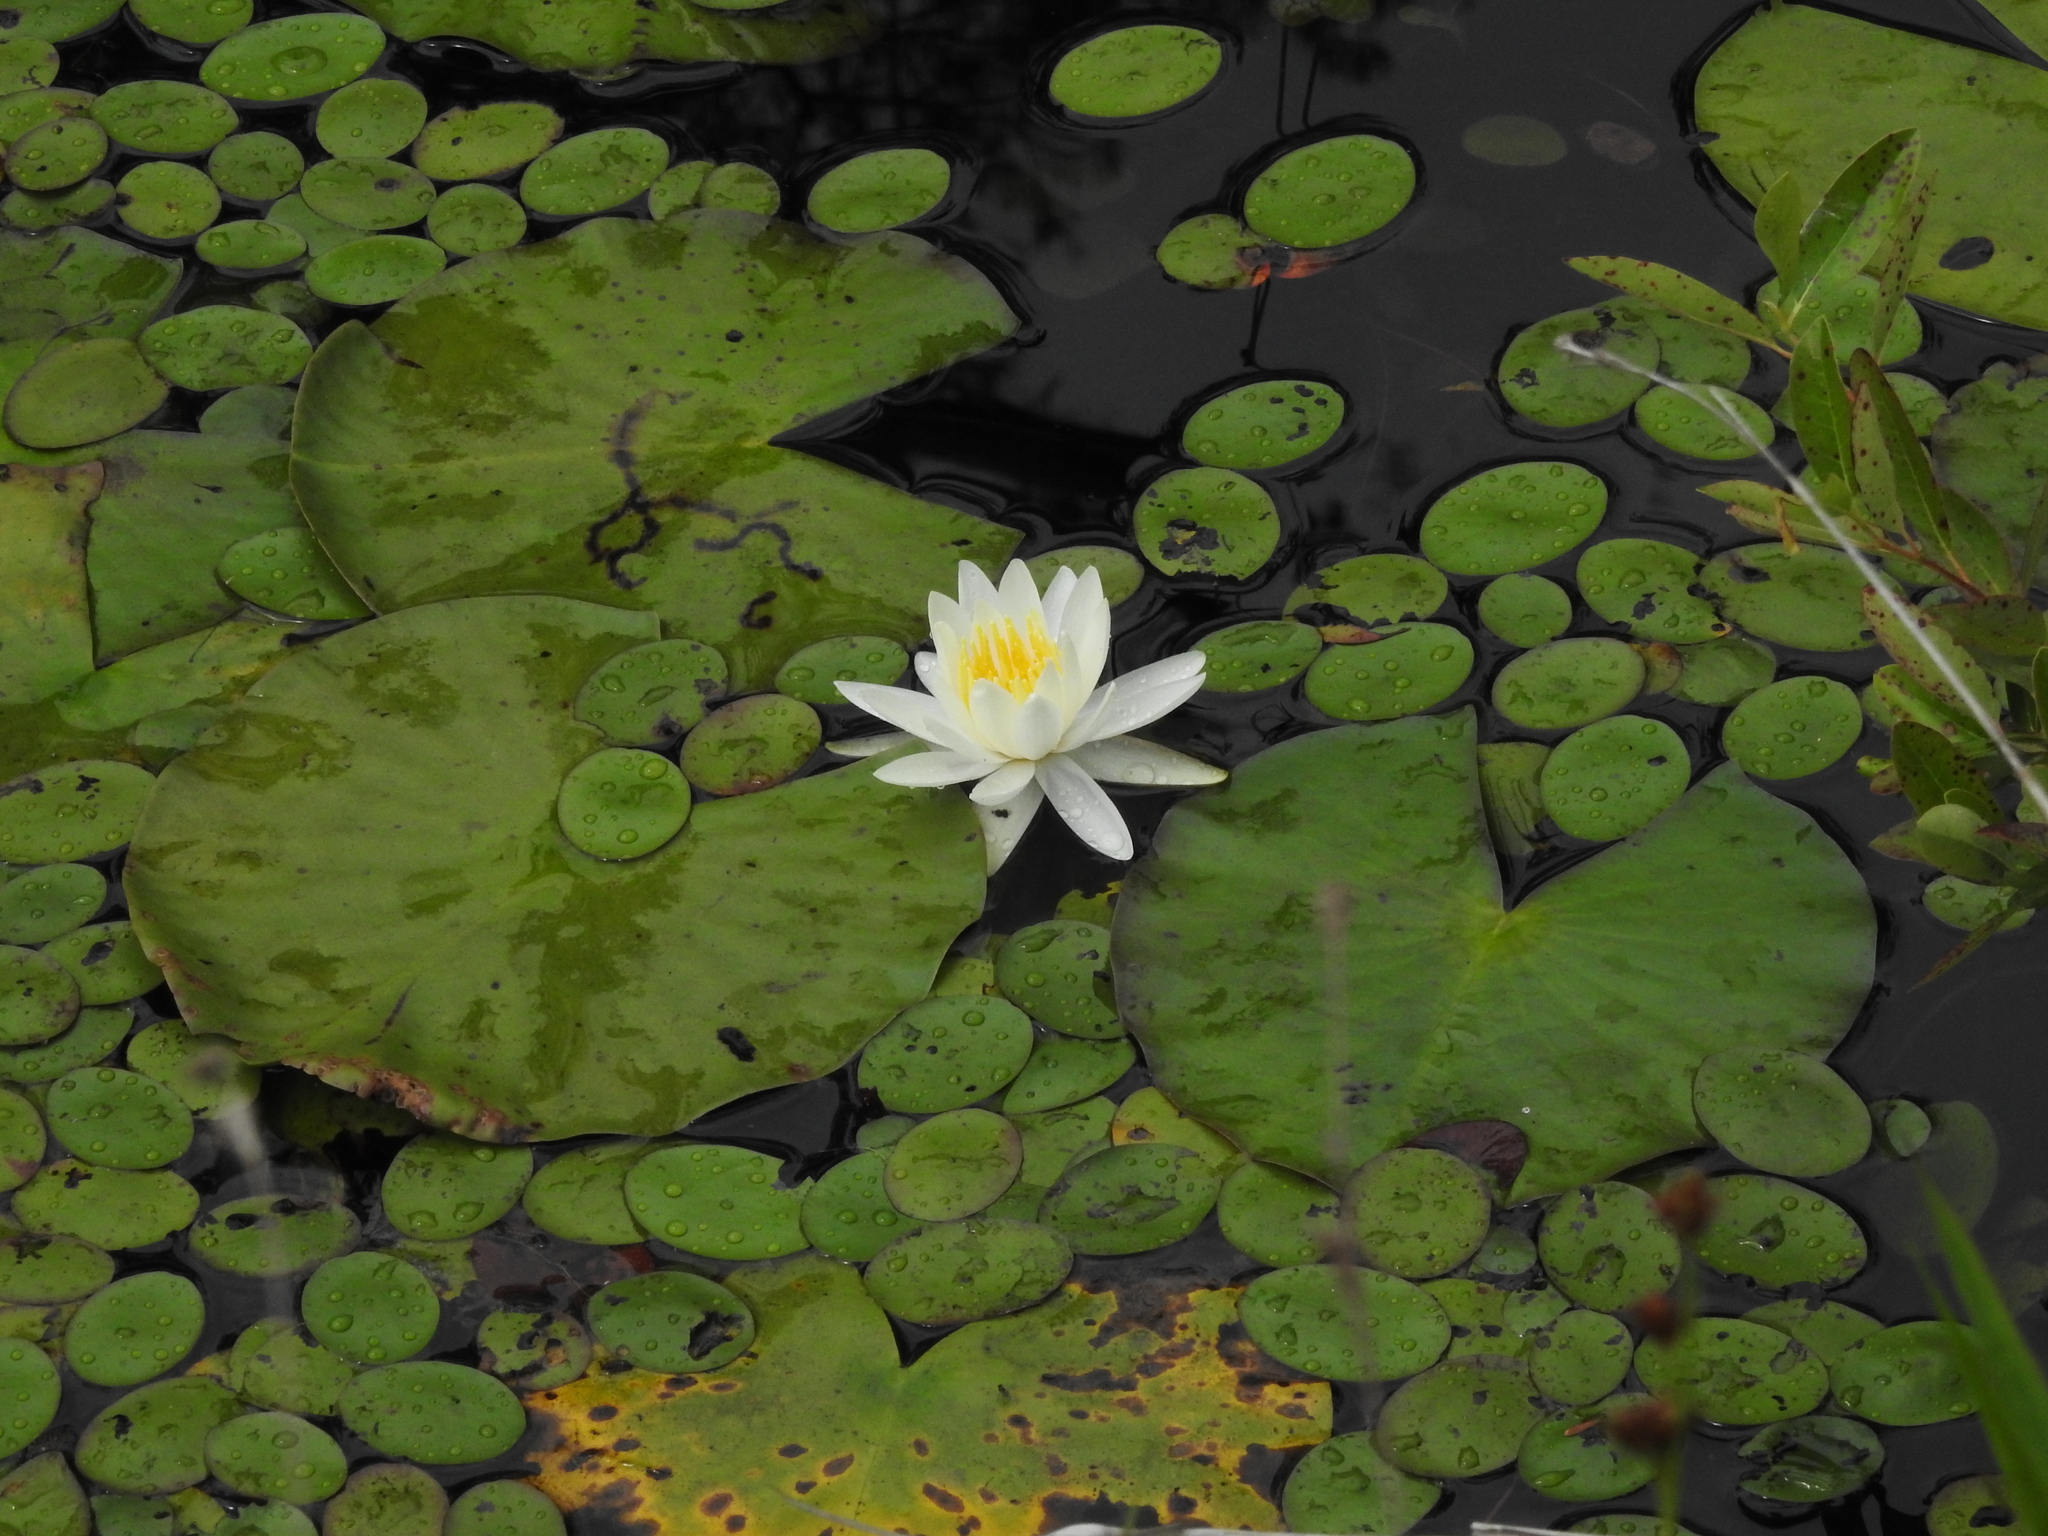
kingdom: Plantae
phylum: Tracheophyta
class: Magnoliopsida
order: Nymphaeales
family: Nymphaeaceae
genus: Nymphaea
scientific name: Nymphaea odorata
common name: Fragrant water-lily
